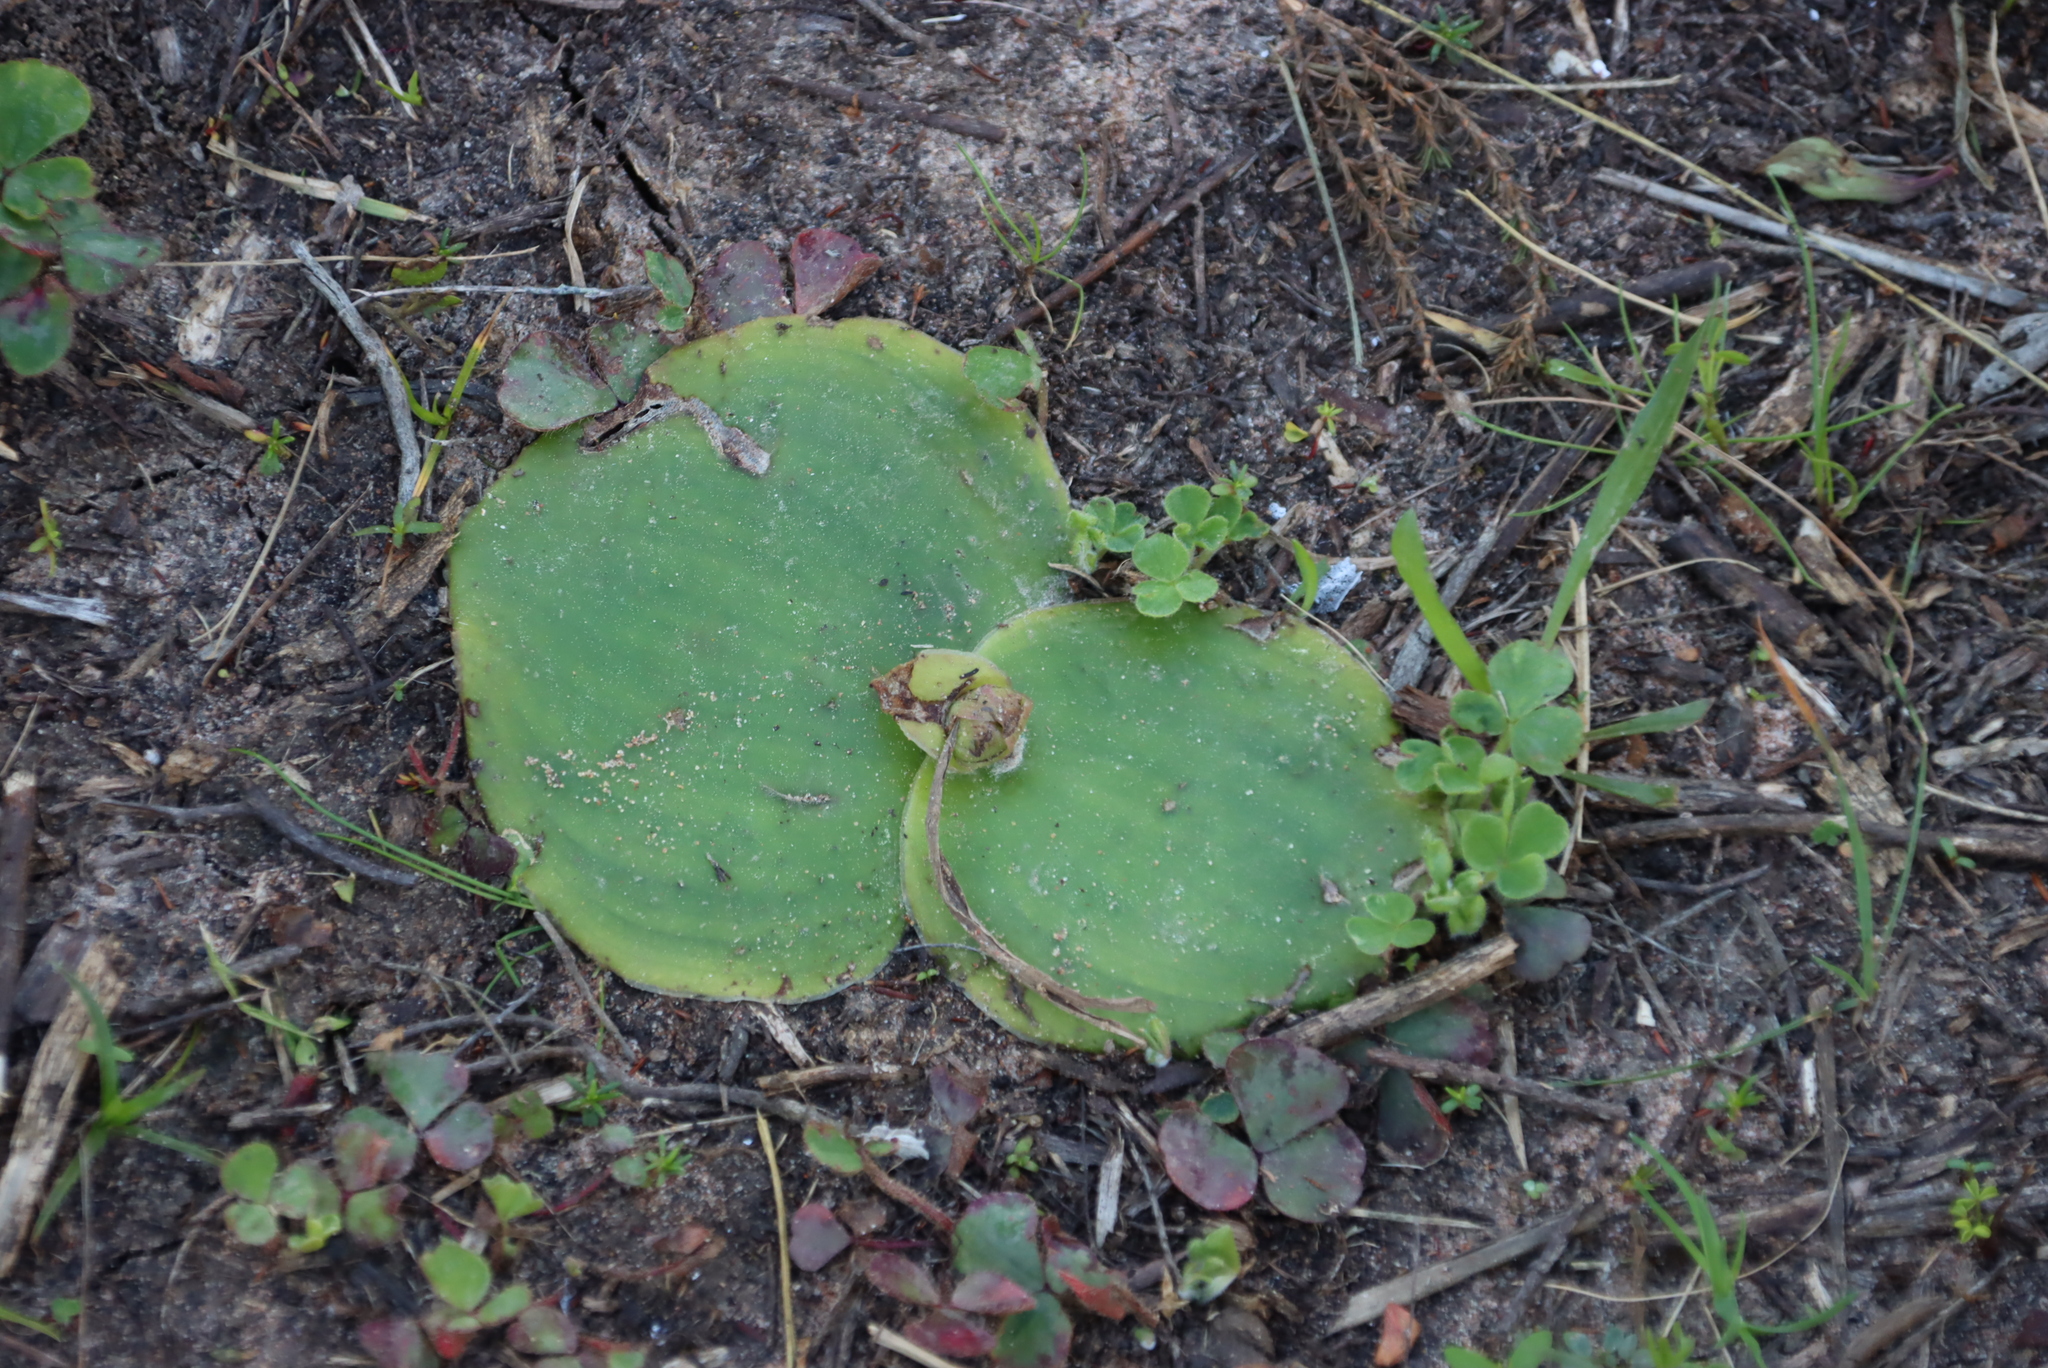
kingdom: Plantae
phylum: Tracheophyta
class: Liliopsida
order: Asparagales
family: Orchidaceae
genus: Satyrium
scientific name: Satyrium longicolle
